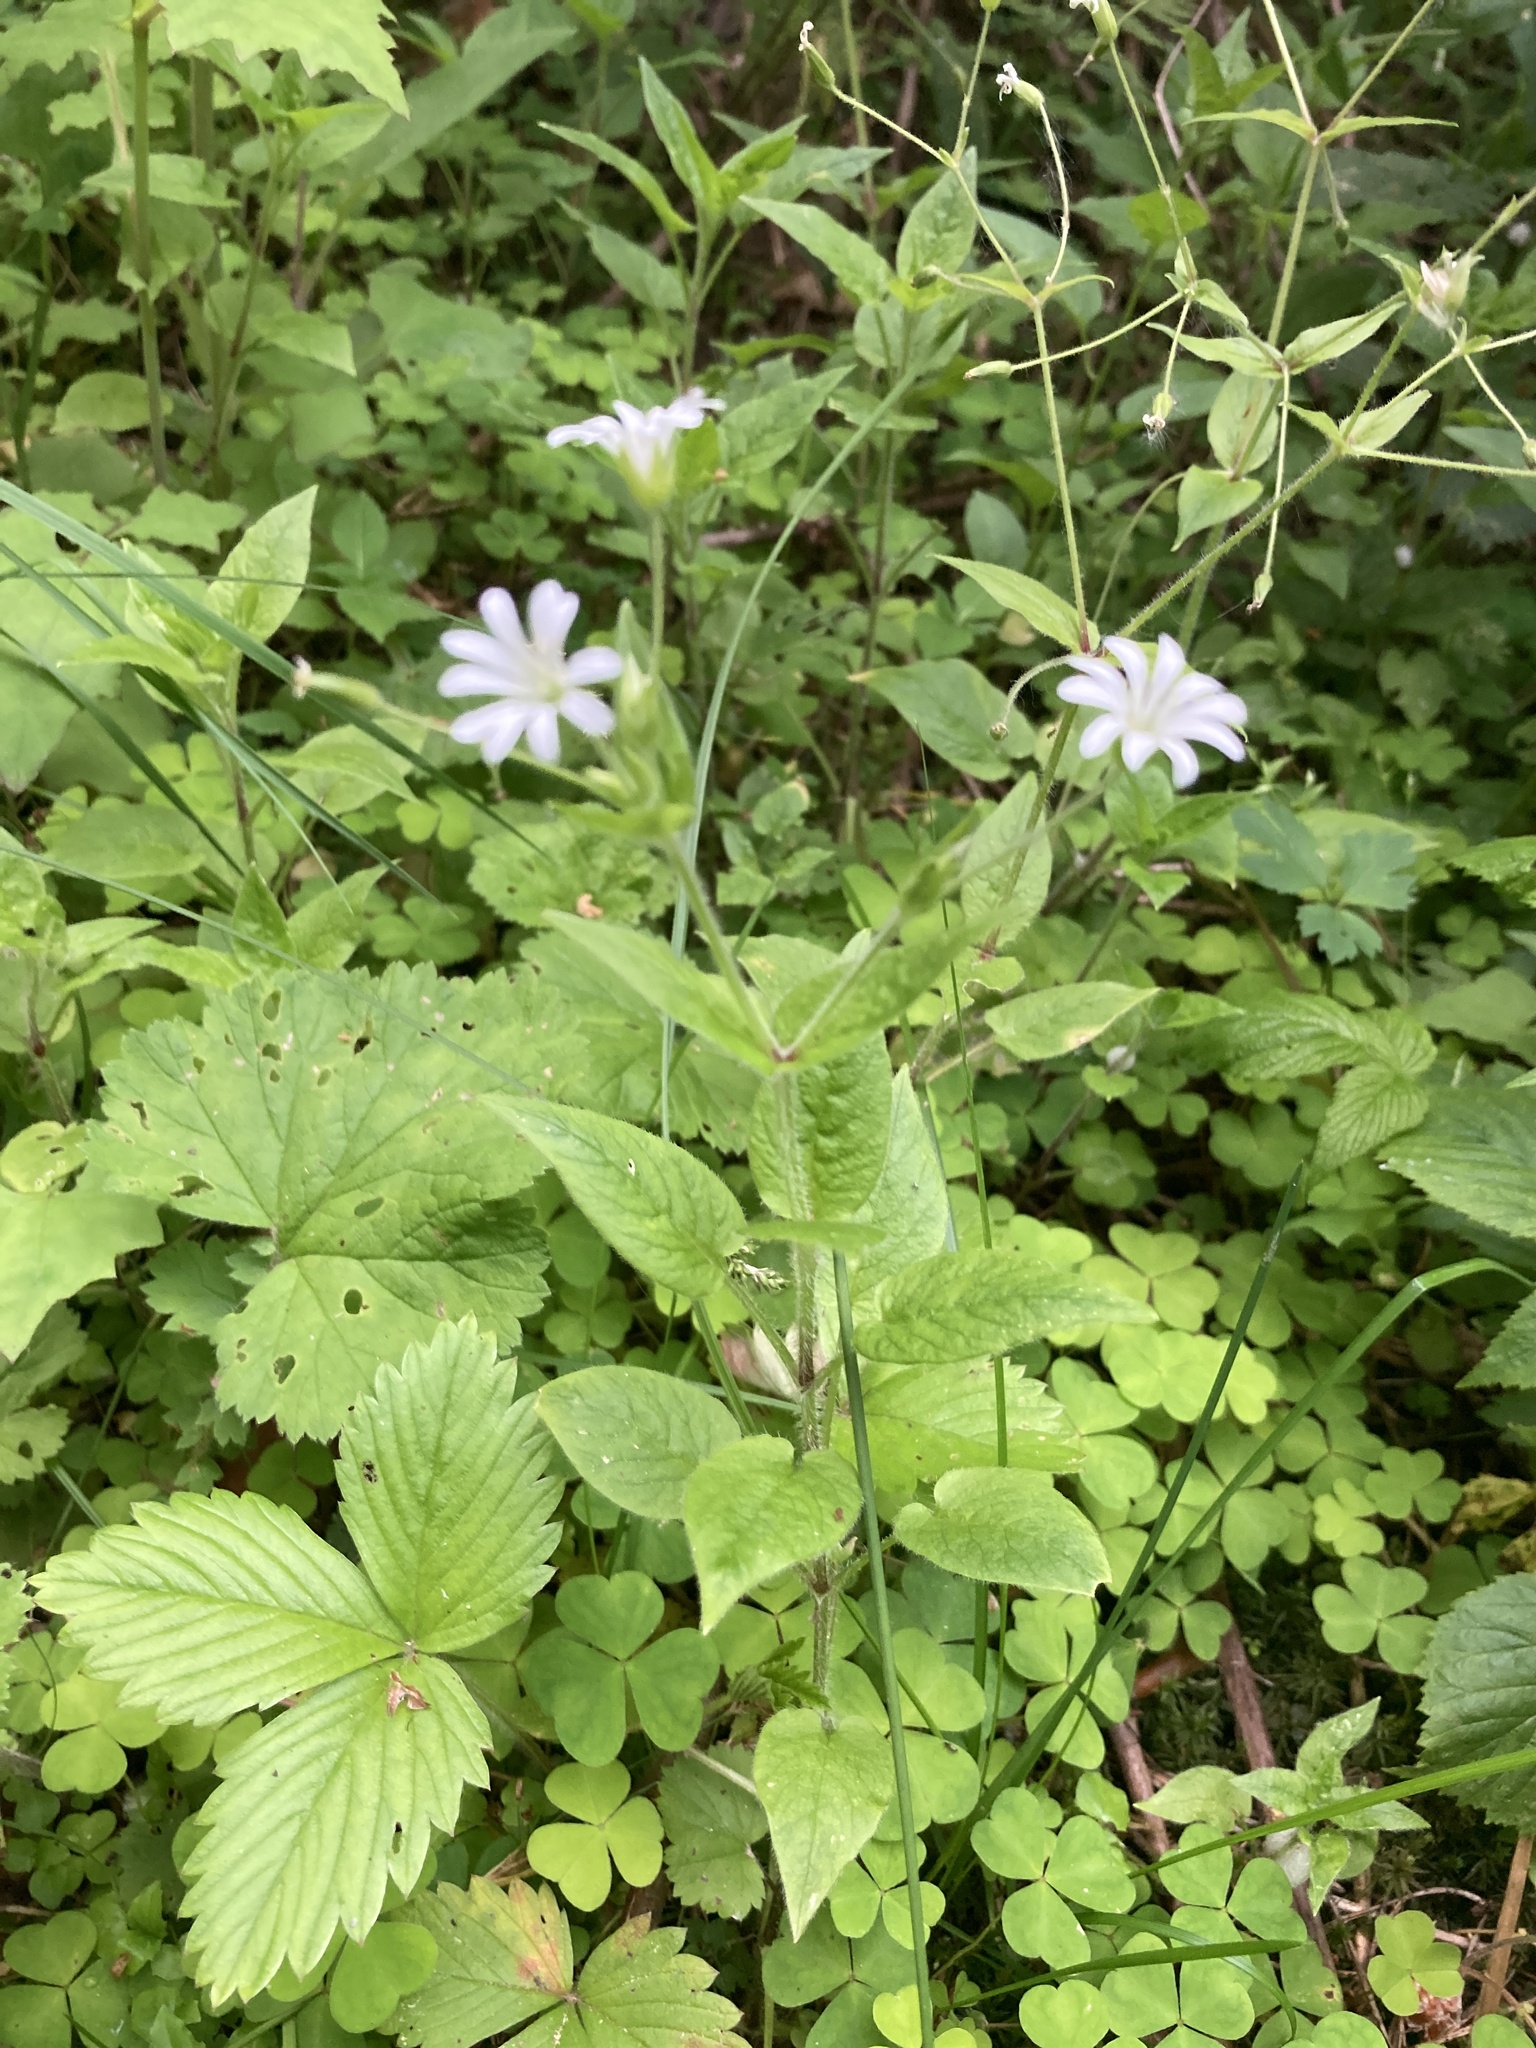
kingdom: Plantae
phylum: Tracheophyta
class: Magnoliopsida
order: Caryophyllales
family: Caryophyllaceae
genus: Stellaria
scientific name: Stellaria nemorum
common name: Wood stitchwort
